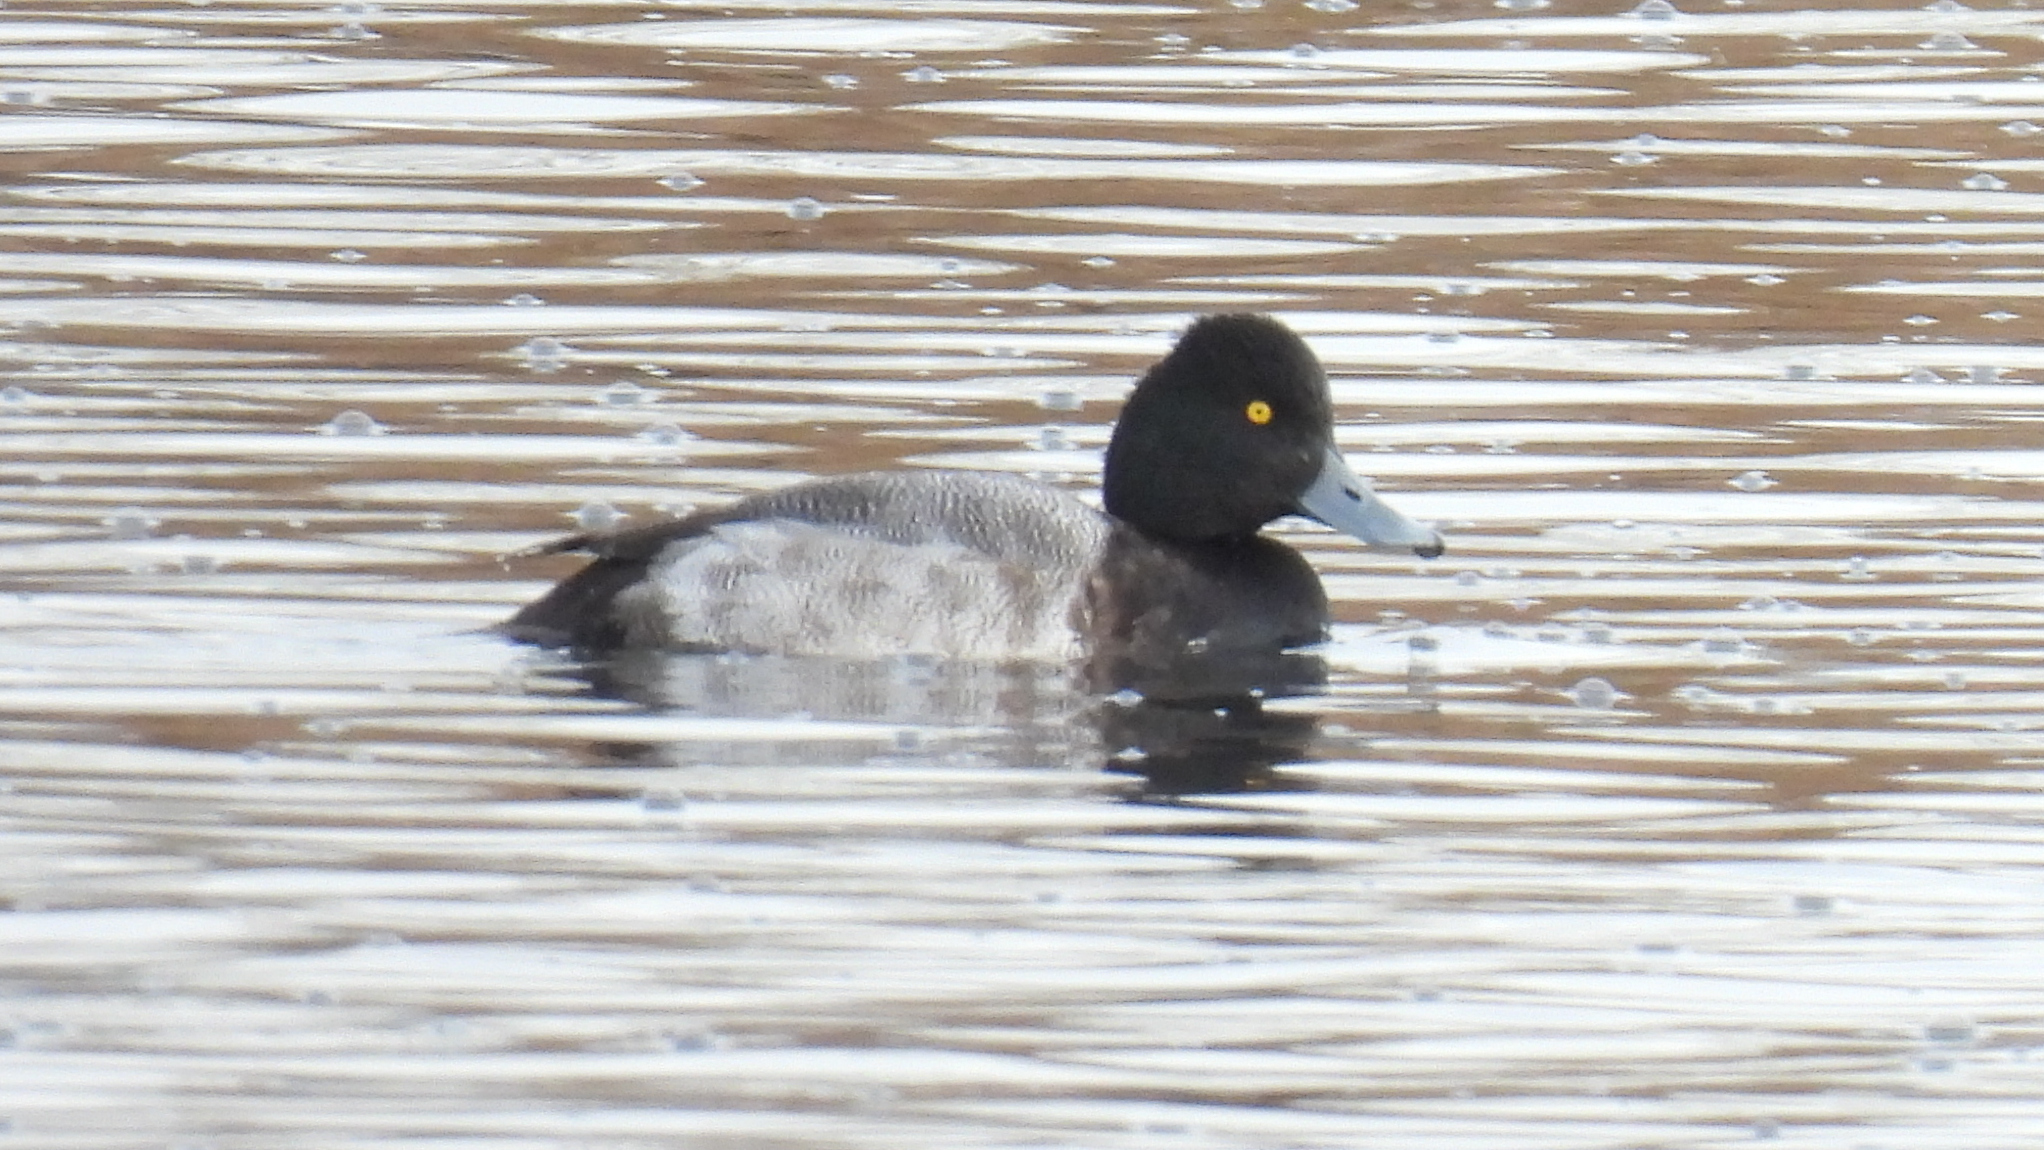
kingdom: Animalia
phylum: Chordata
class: Aves
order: Anseriformes
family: Anatidae
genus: Aythya
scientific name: Aythya affinis
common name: Lesser scaup
